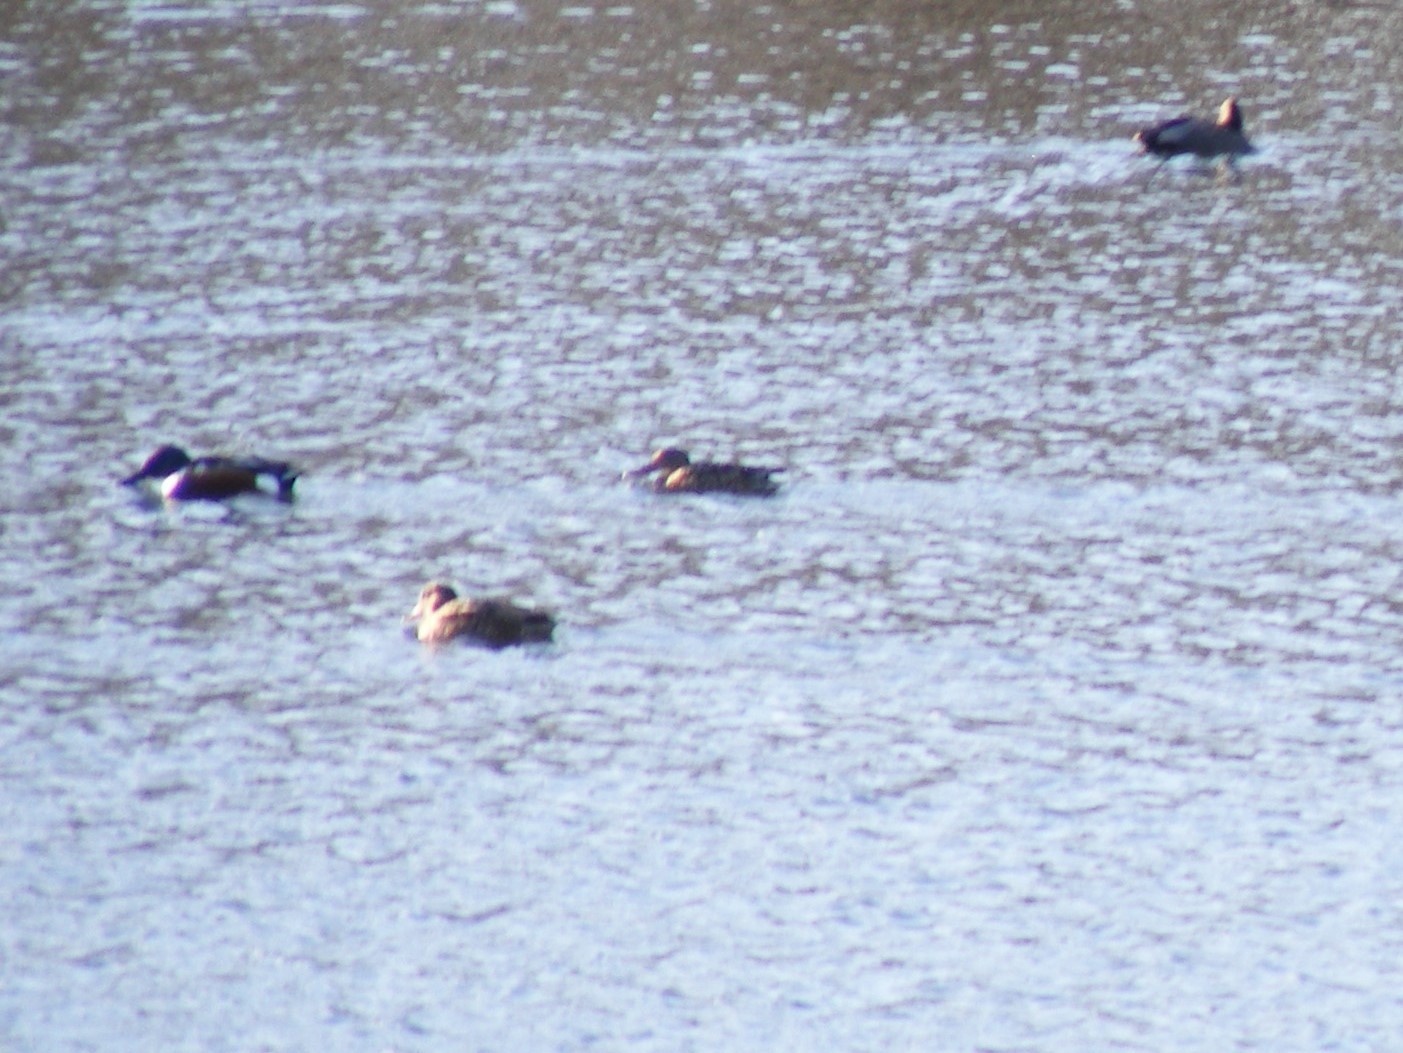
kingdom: Animalia
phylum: Chordata
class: Aves
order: Anseriformes
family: Anatidae
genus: Spatula
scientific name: Spatula clypeata
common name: Northern shoveler
